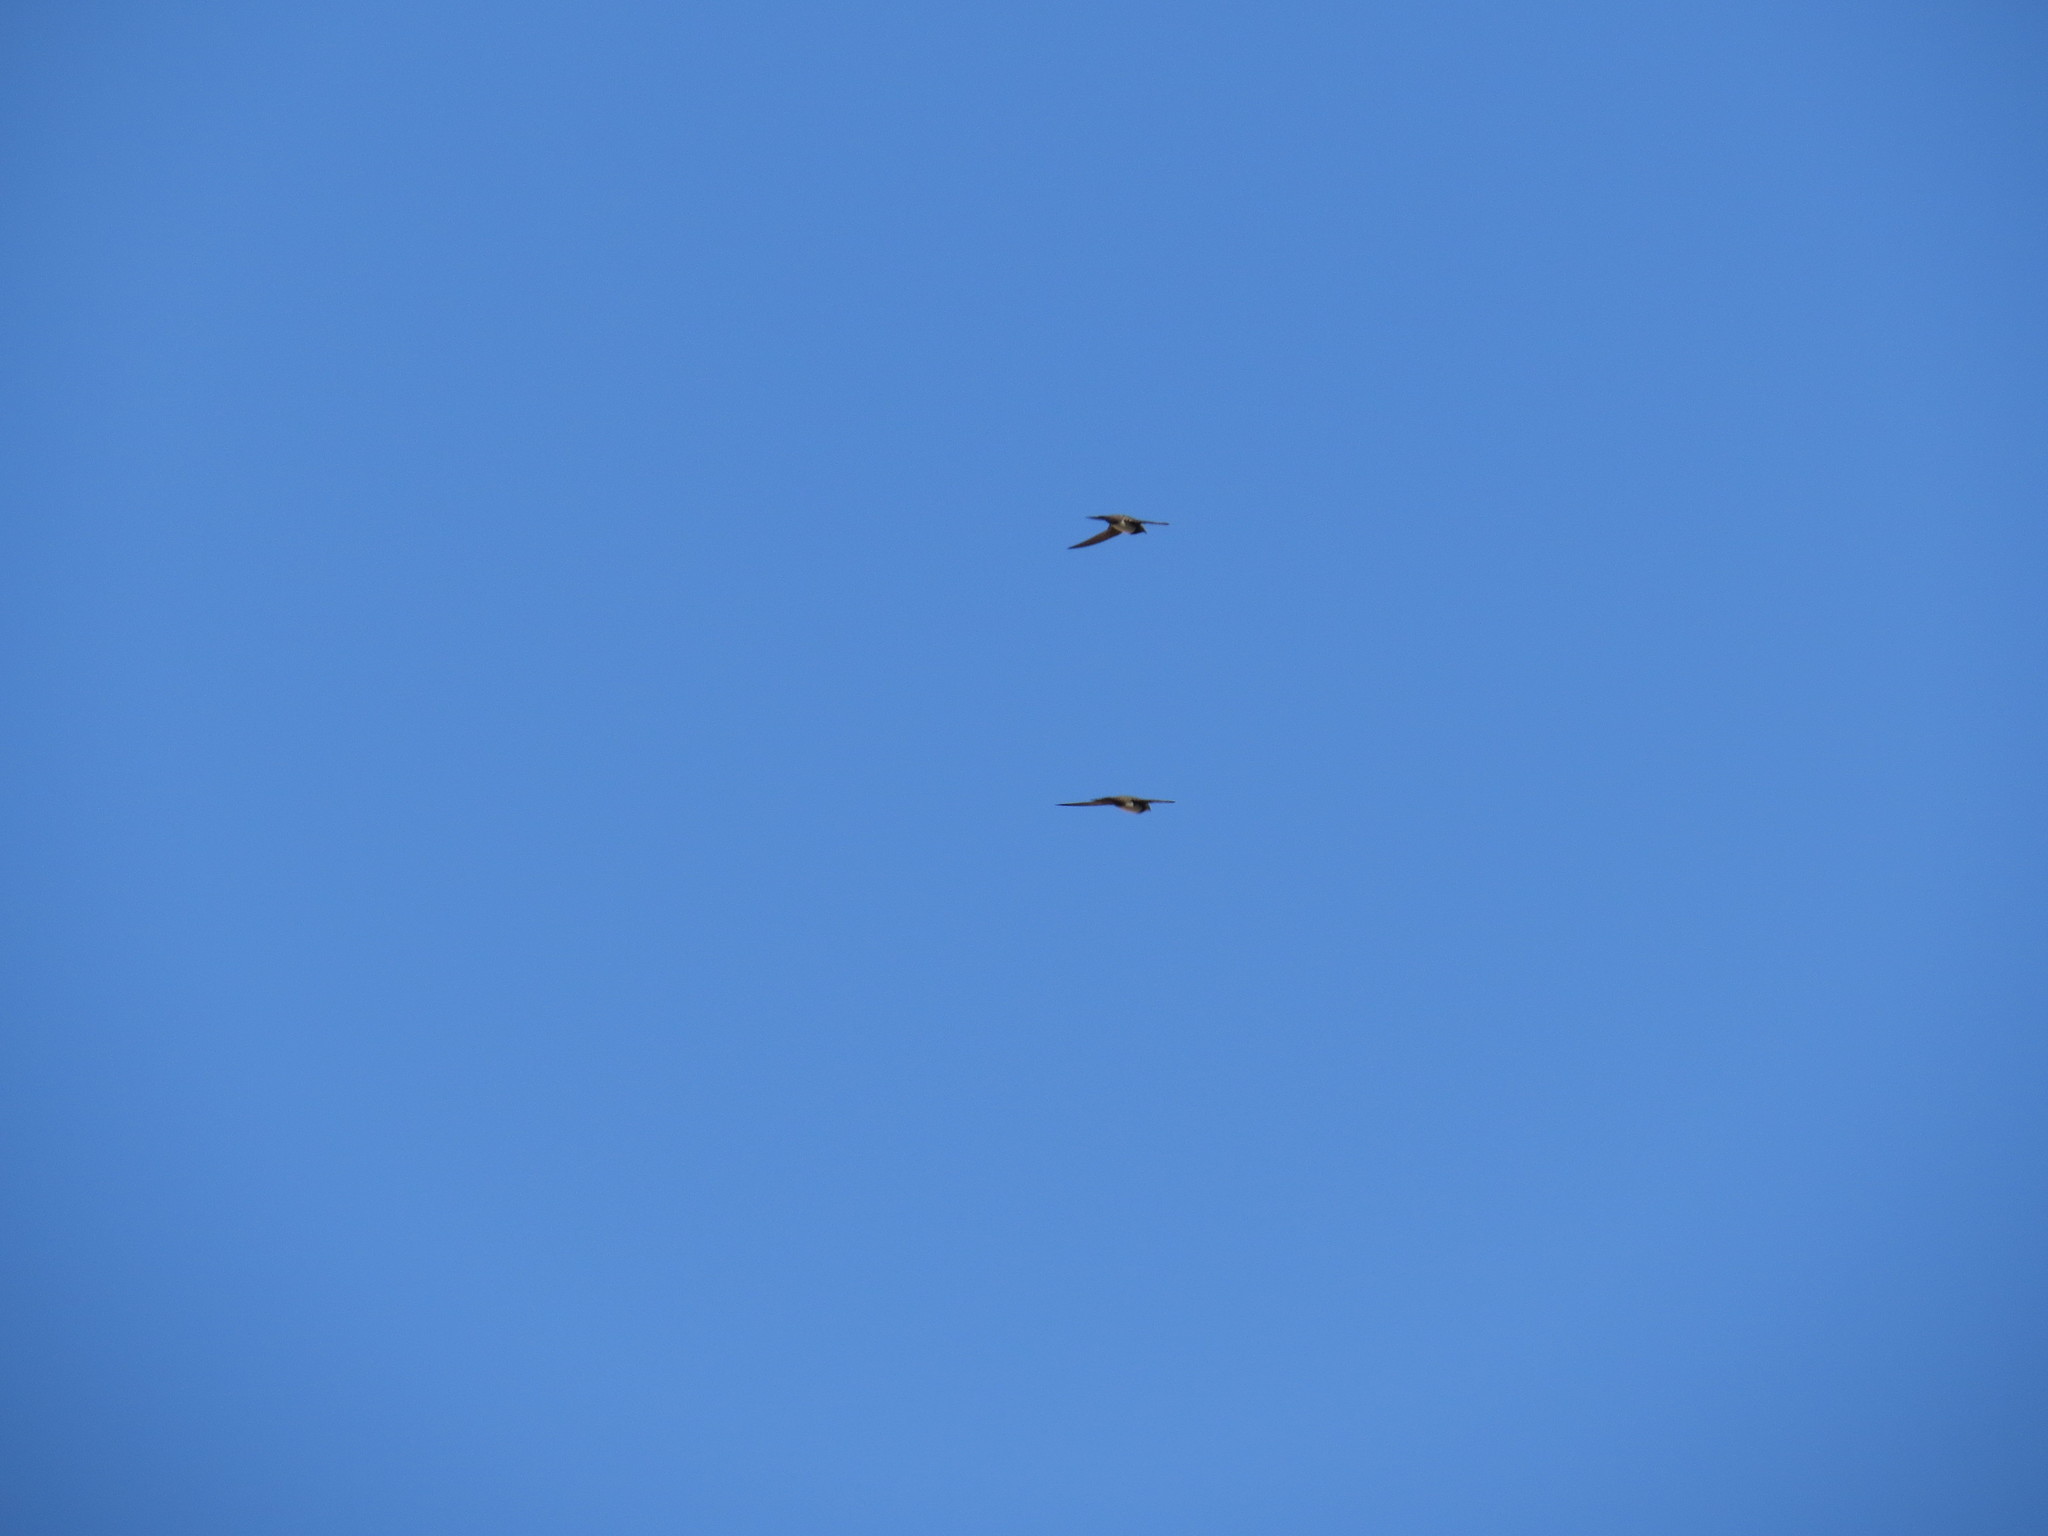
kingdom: Animalia
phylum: Chordata
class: Aves
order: Apodiformes
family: Apodidae
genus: Tachymarptis
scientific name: Tachymarptis melba
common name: Alpine swift
